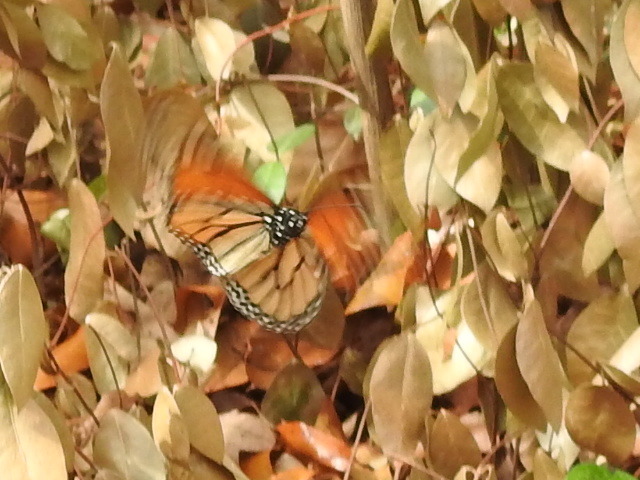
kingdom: Animalia
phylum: Arthropoda
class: Insecta
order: Lepidoptera
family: Nymphalidae
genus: Danaus
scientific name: Danaus plexippus
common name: Monarch
